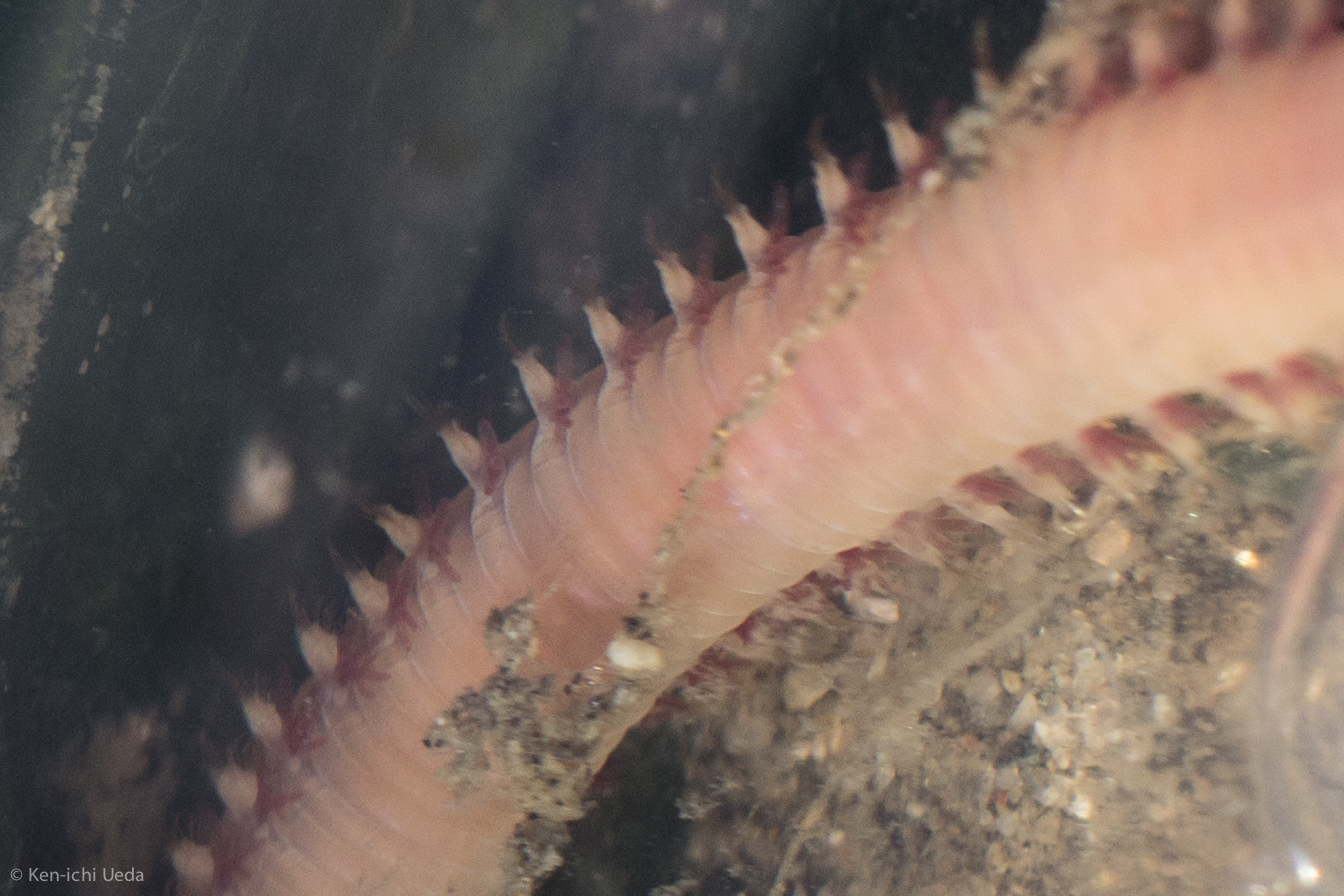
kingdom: Animalia
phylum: Annelida
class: Polychaeta
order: Phyllodocida
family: Glyceridae
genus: Glycera
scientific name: Glycera americana
